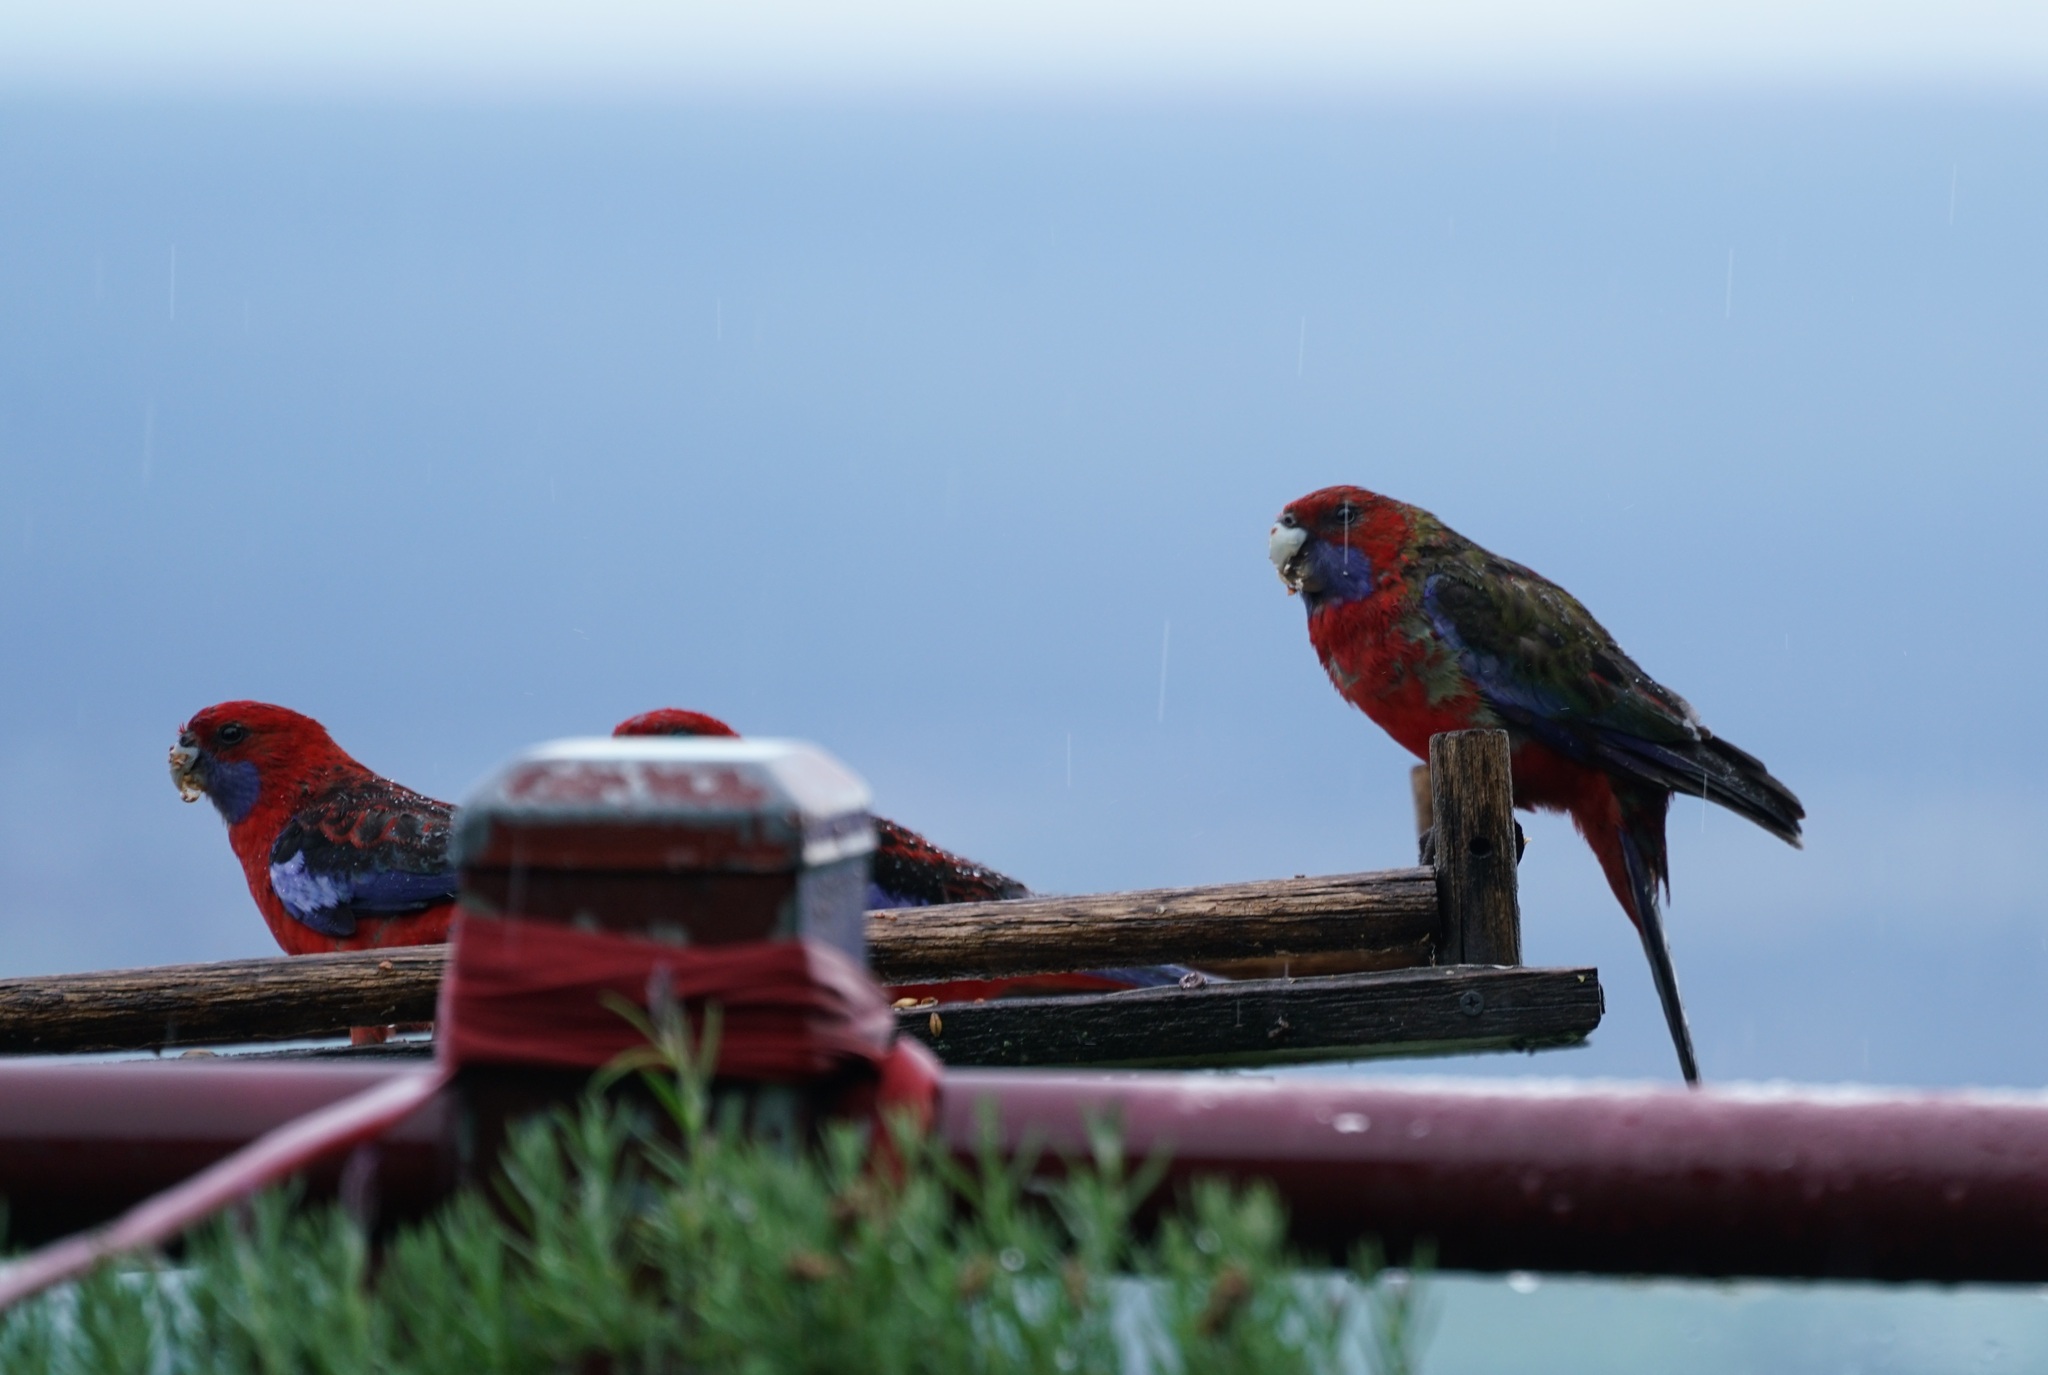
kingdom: Animalia
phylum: Chordata
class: Aves
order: Psittaciformes
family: Psittacidae
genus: Platycercus
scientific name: Platycercus elegans
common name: Crimson rosella
